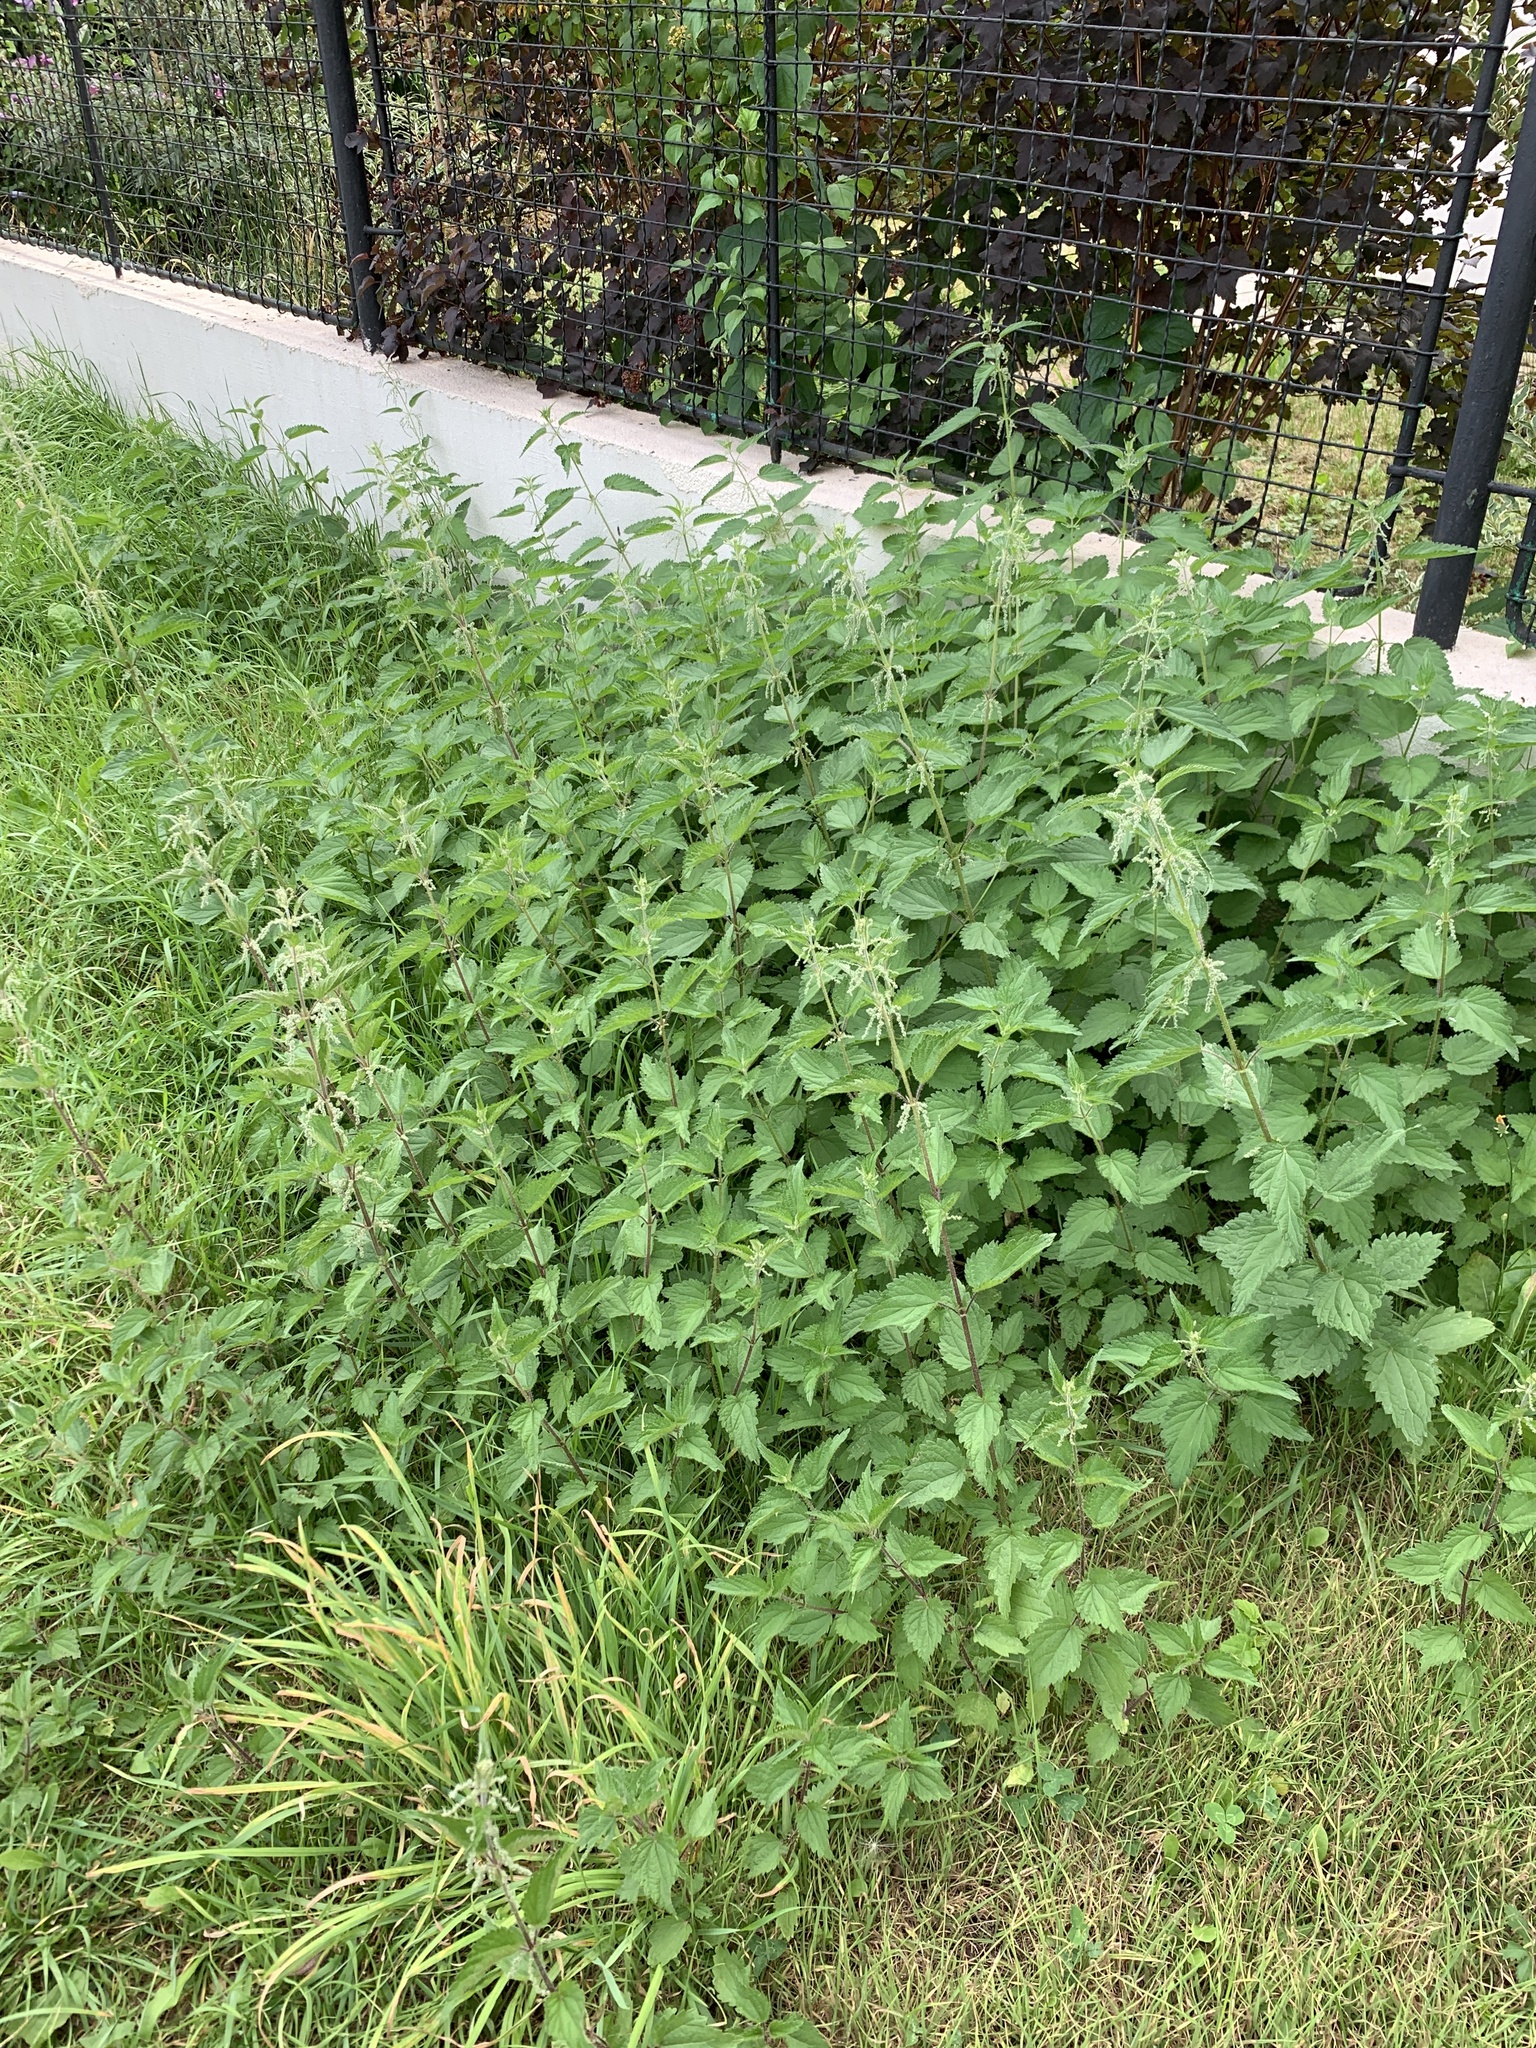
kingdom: Plantae
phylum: Tracheophyta
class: Magnoliopsida
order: Rosales
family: Urticaceae
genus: Urtica
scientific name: Urtica dioica
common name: Common nettle
